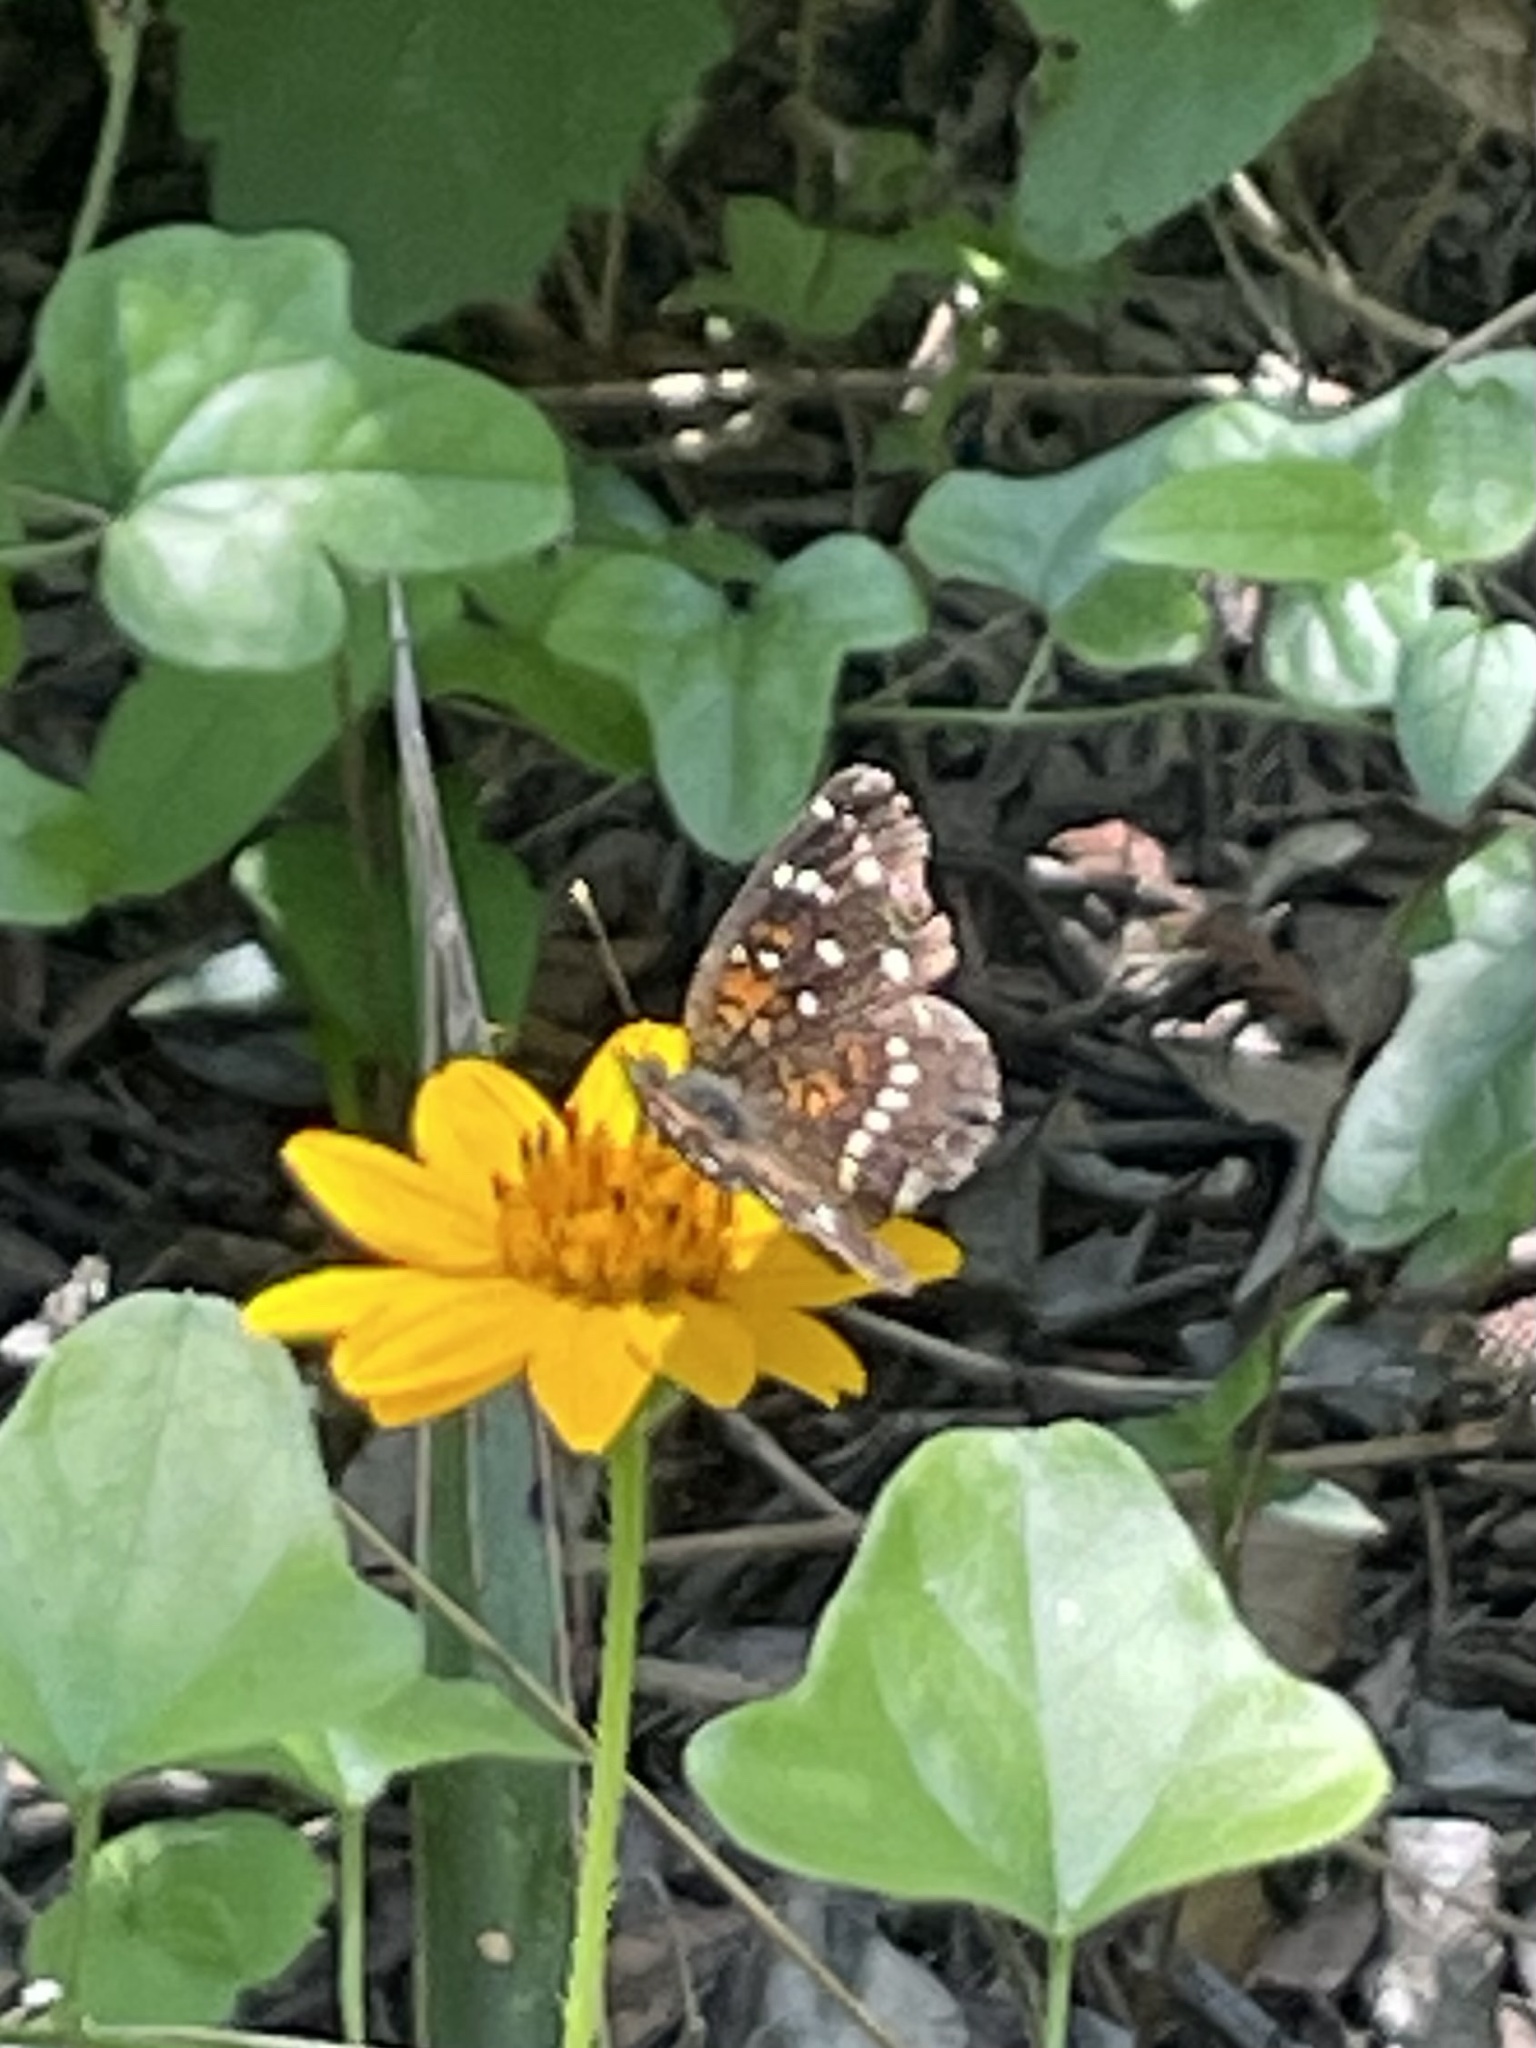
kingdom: Animalia
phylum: Arthropoda
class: Insecta
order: Lepidoptera
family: Nymphalidae
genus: Anthanassa
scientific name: Anthanassa texana
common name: Texan crescent
